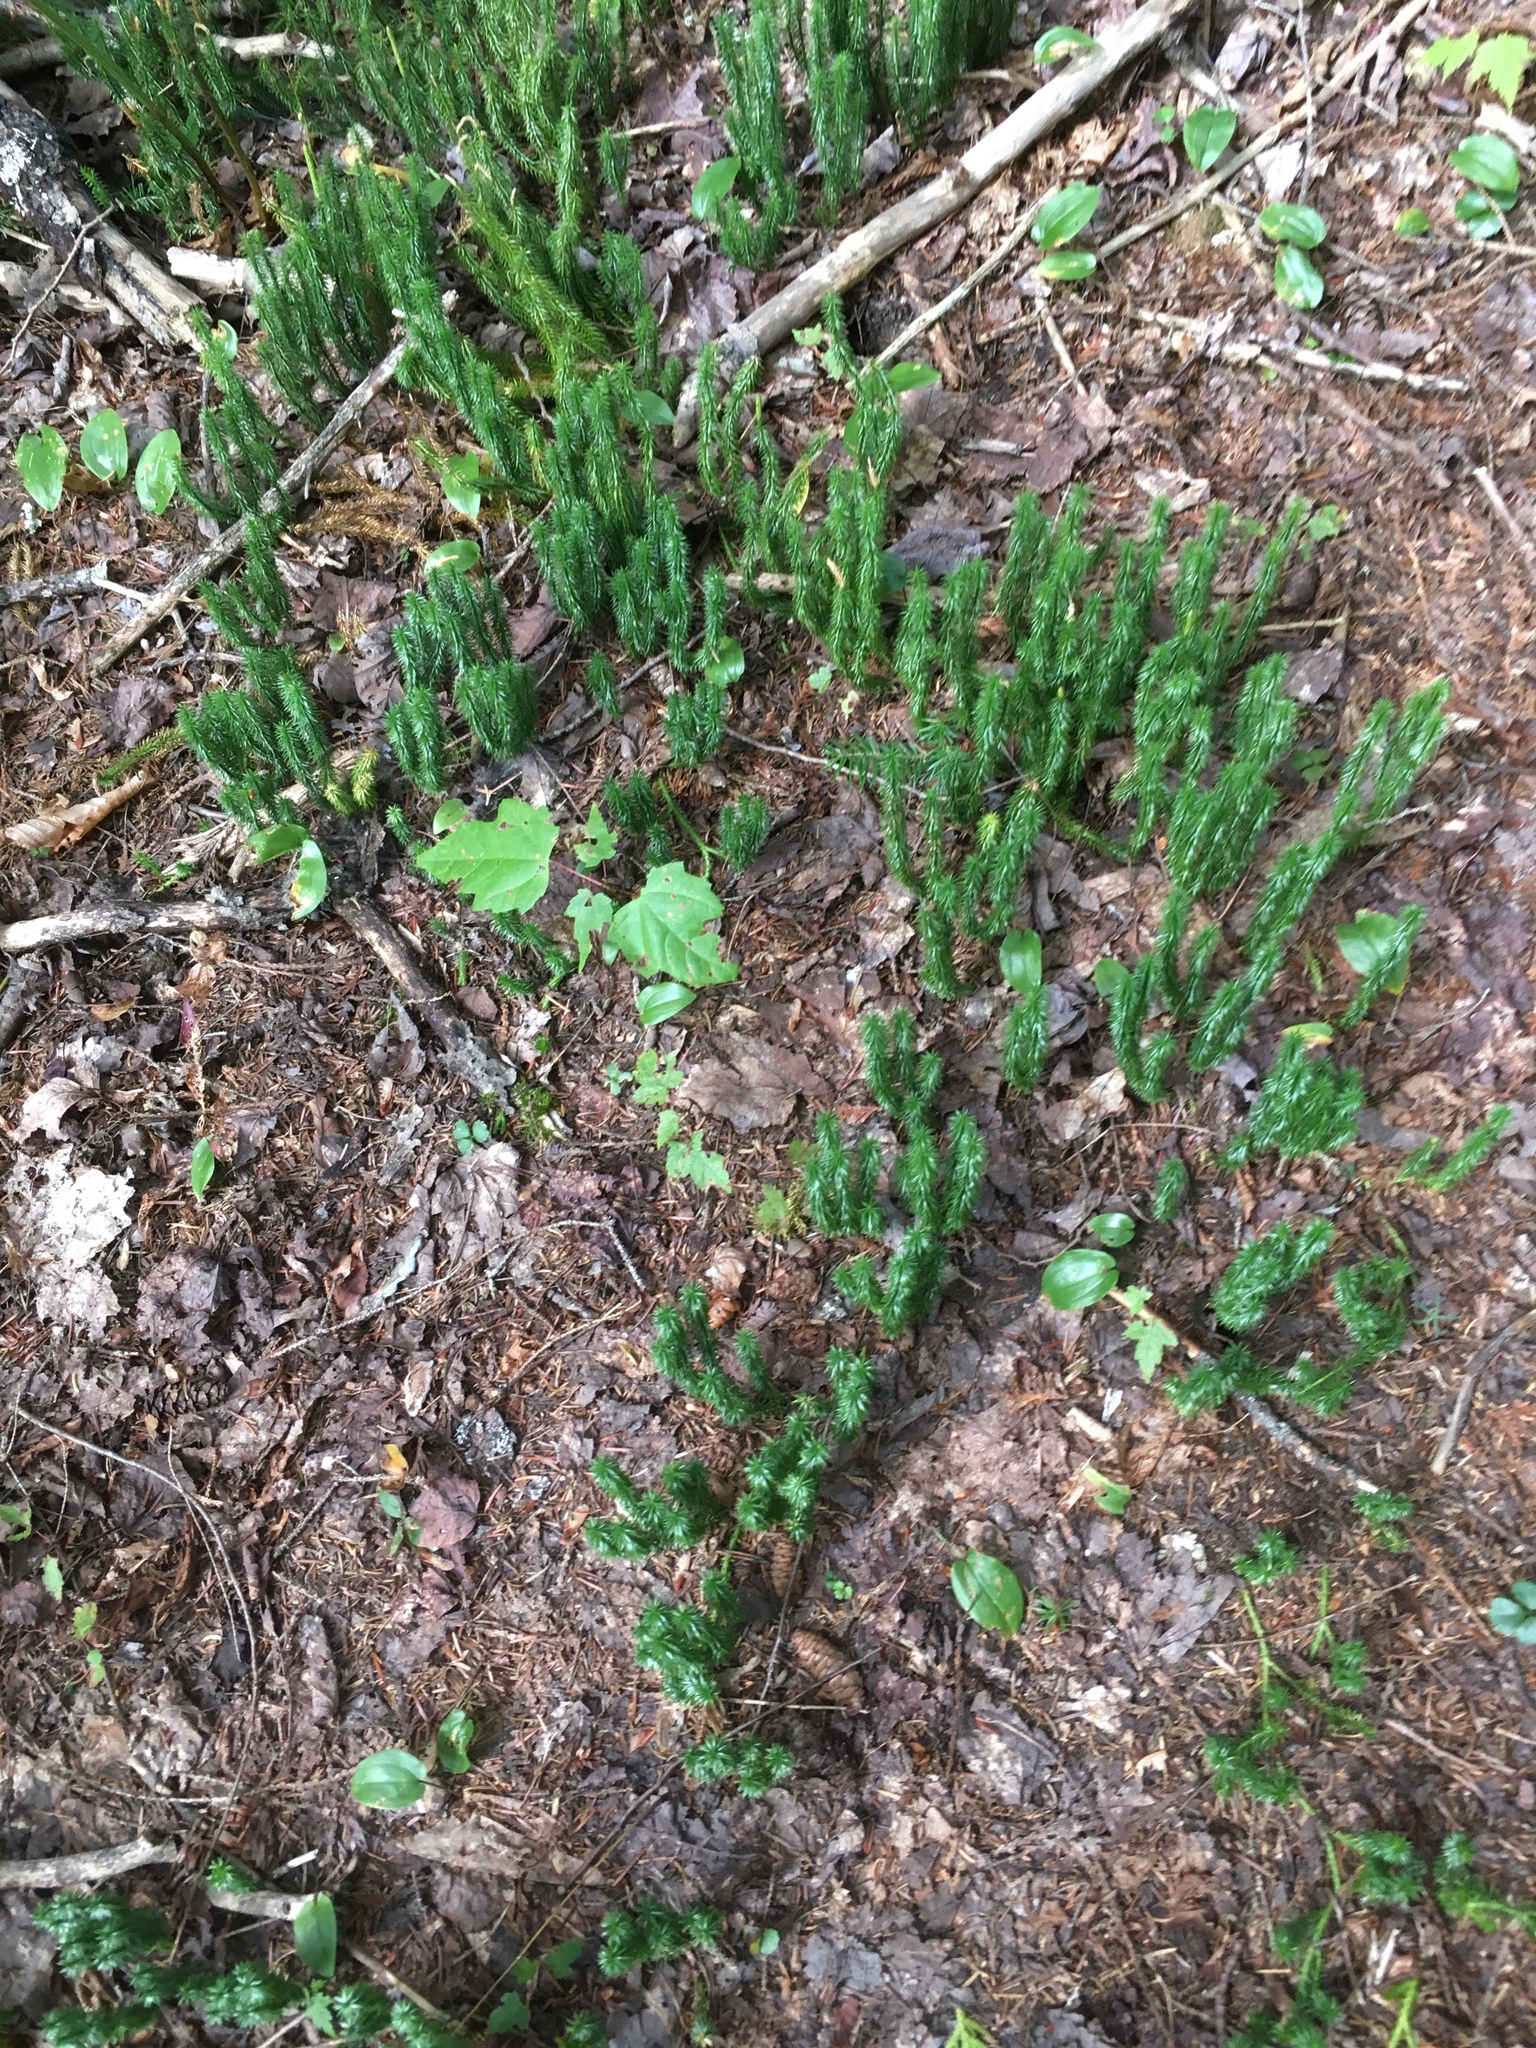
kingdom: Plantae
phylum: Tracheophyta
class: Lycopodiopsida
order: Lycopodiales
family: Lycopodiaceae
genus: Spinulum
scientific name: Spinulum annotinum
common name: Interrupted club-moss
